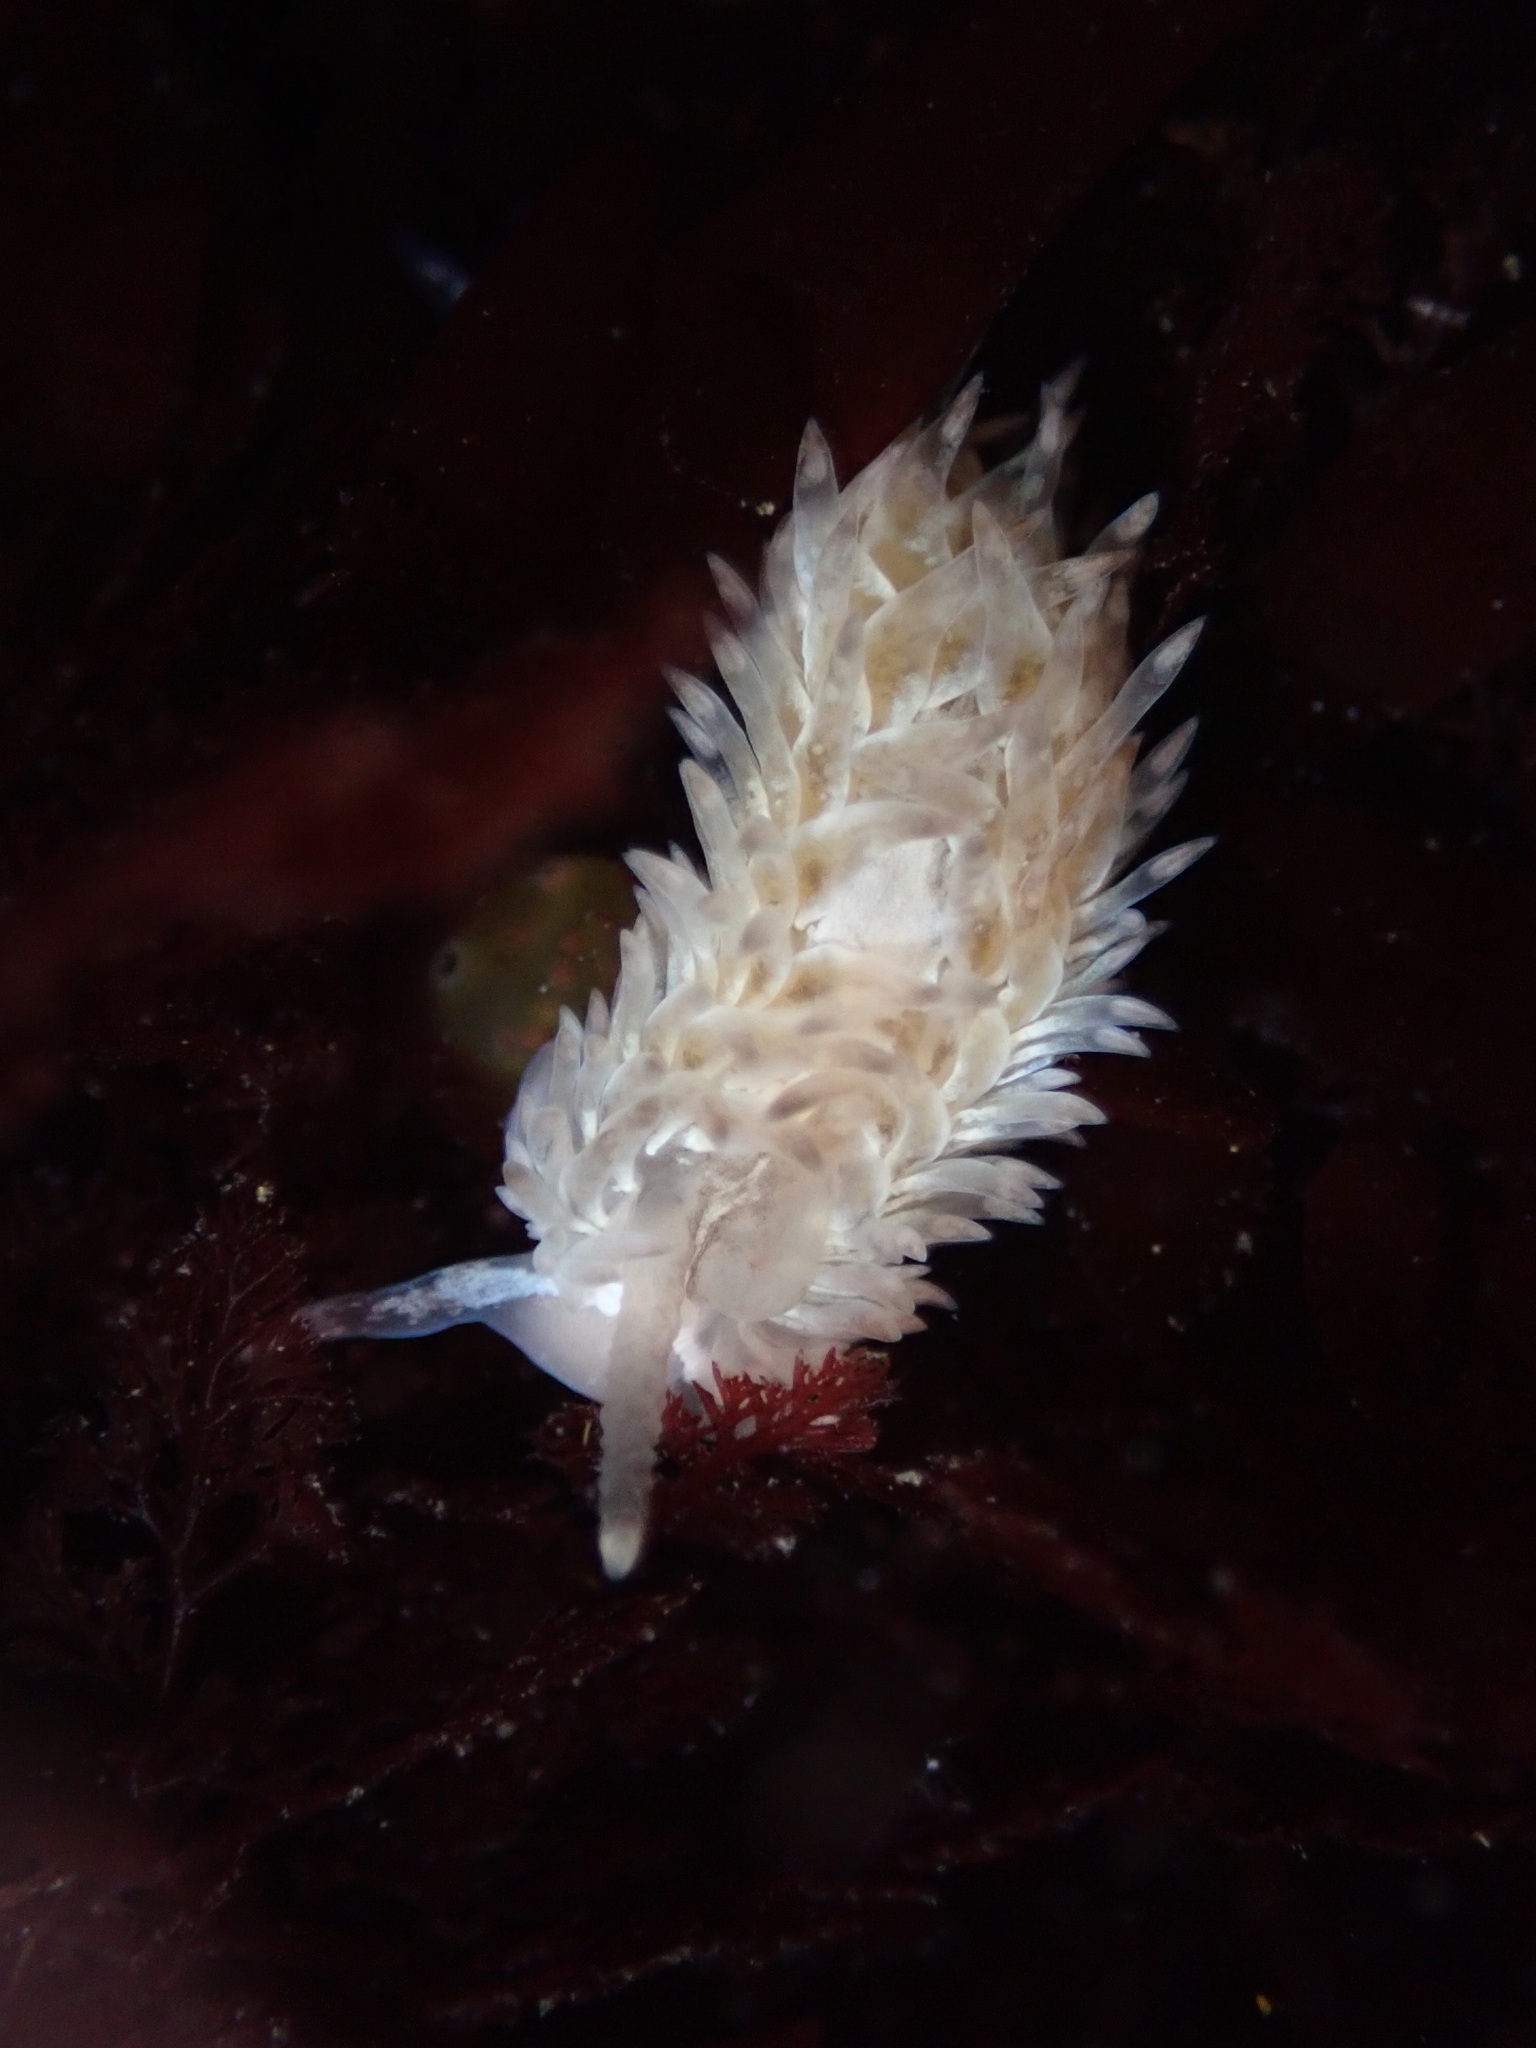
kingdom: Animalia
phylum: Mollusca
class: Gastropoda
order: Nudibranchia
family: Aeolidiidae
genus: Aeolidia
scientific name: Aeolidia loui
